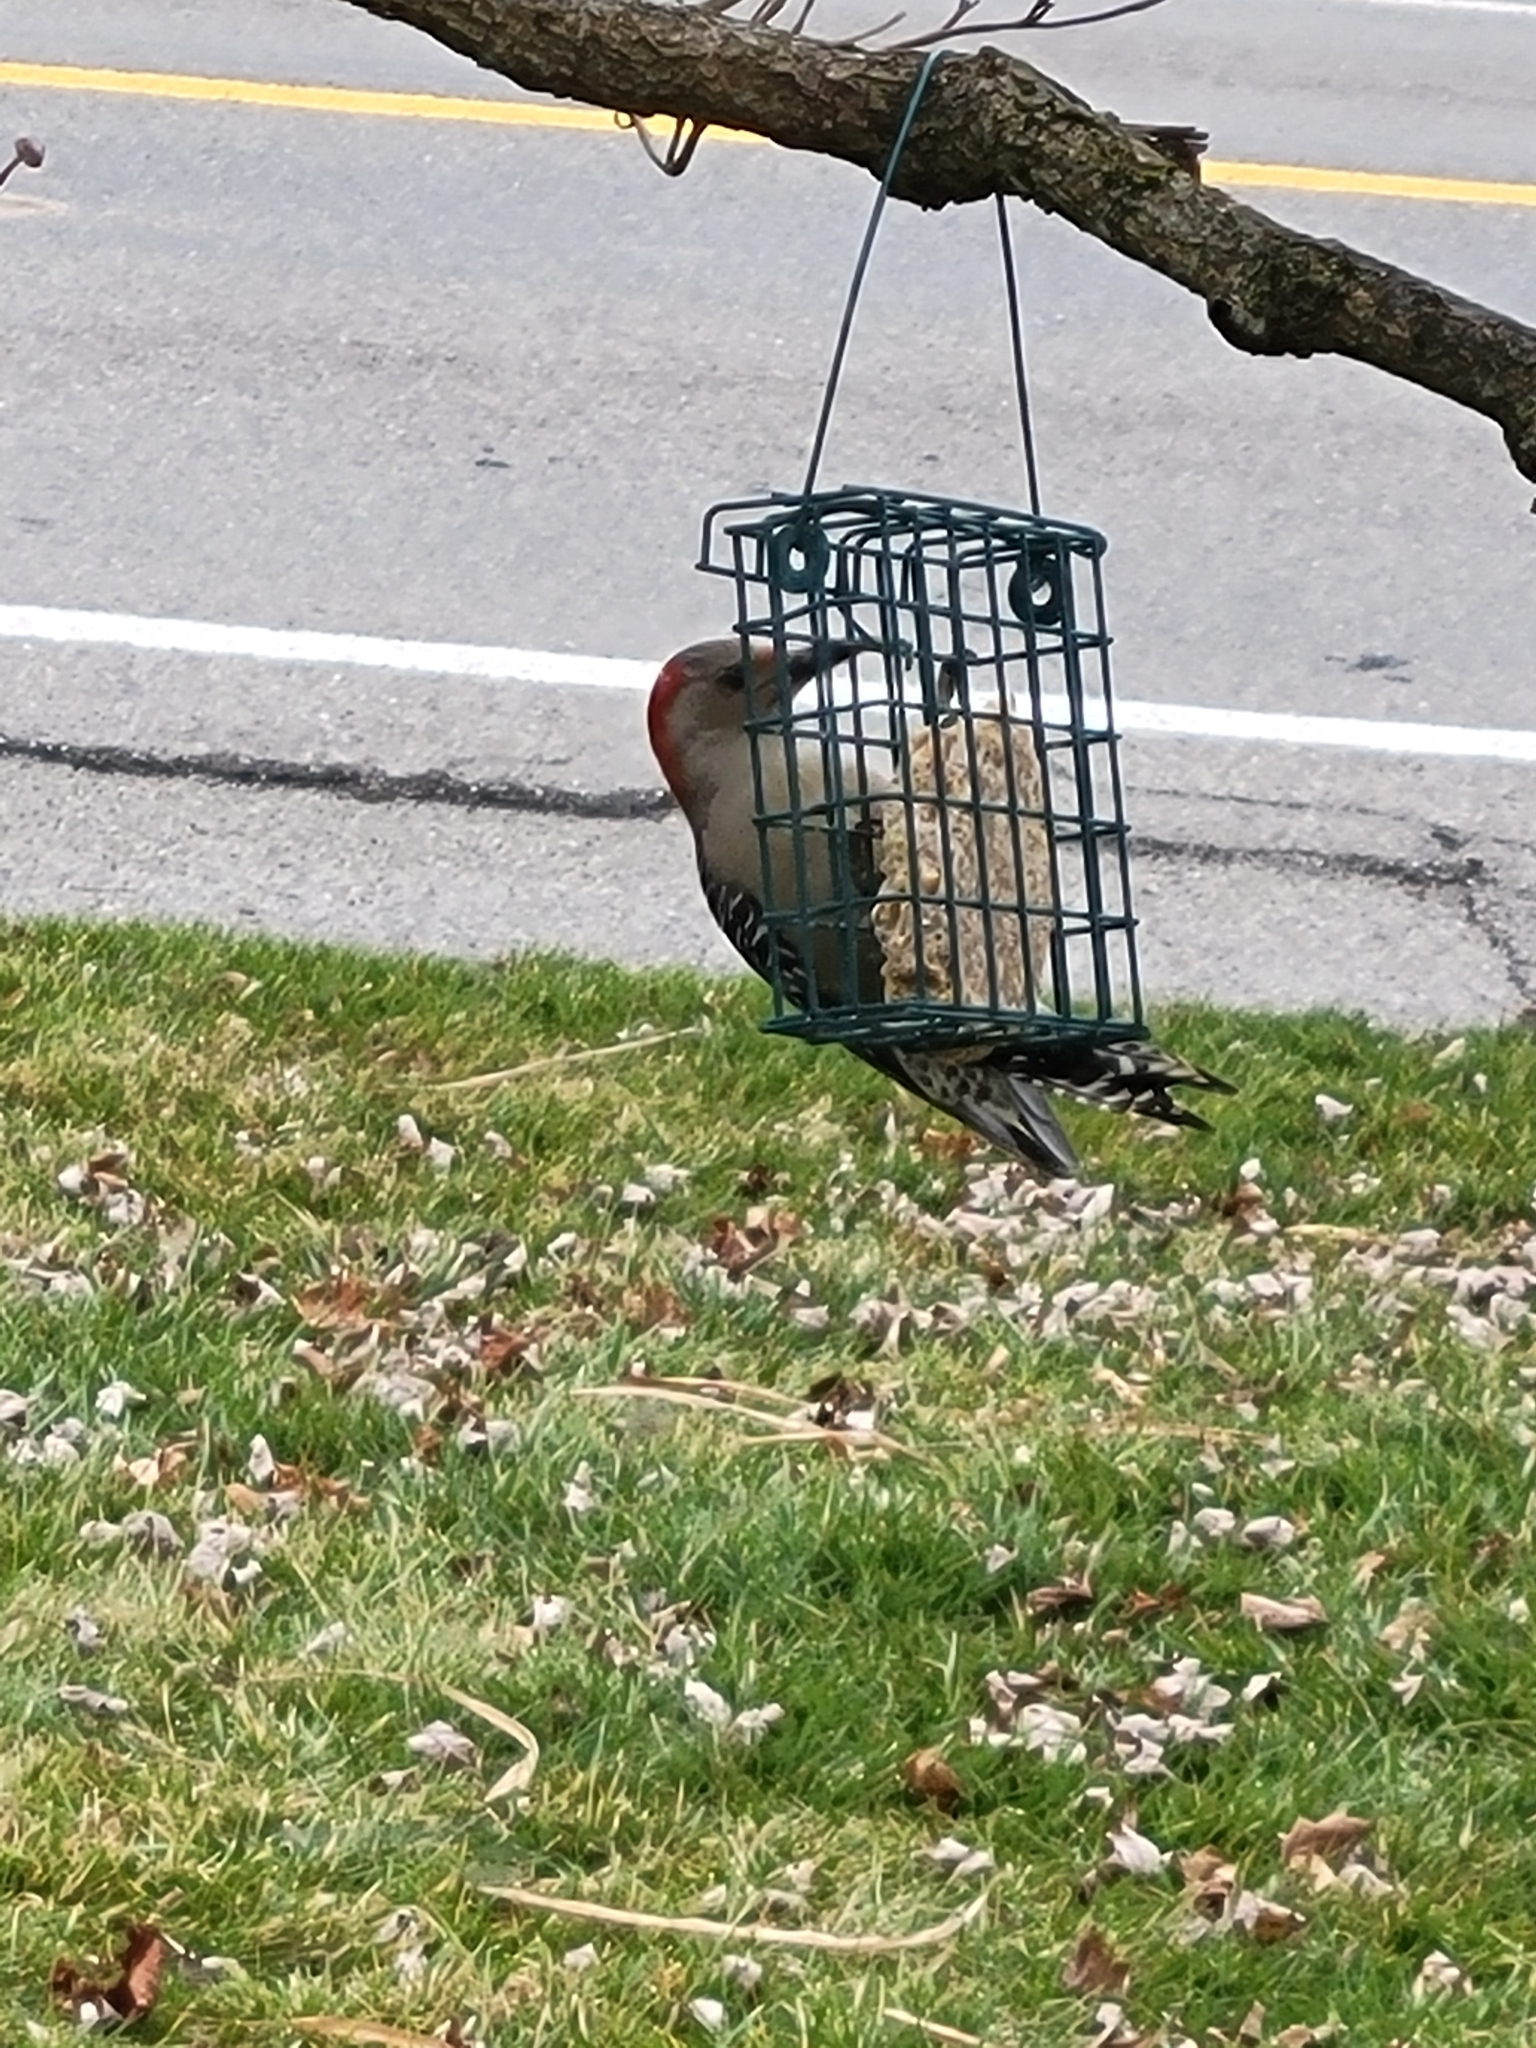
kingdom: Animalia
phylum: Chordata
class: Aves
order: Piciformes
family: Picidae
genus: Melanerpes
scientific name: Melanerpes carolinus
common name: Red-bellied woodpecker
